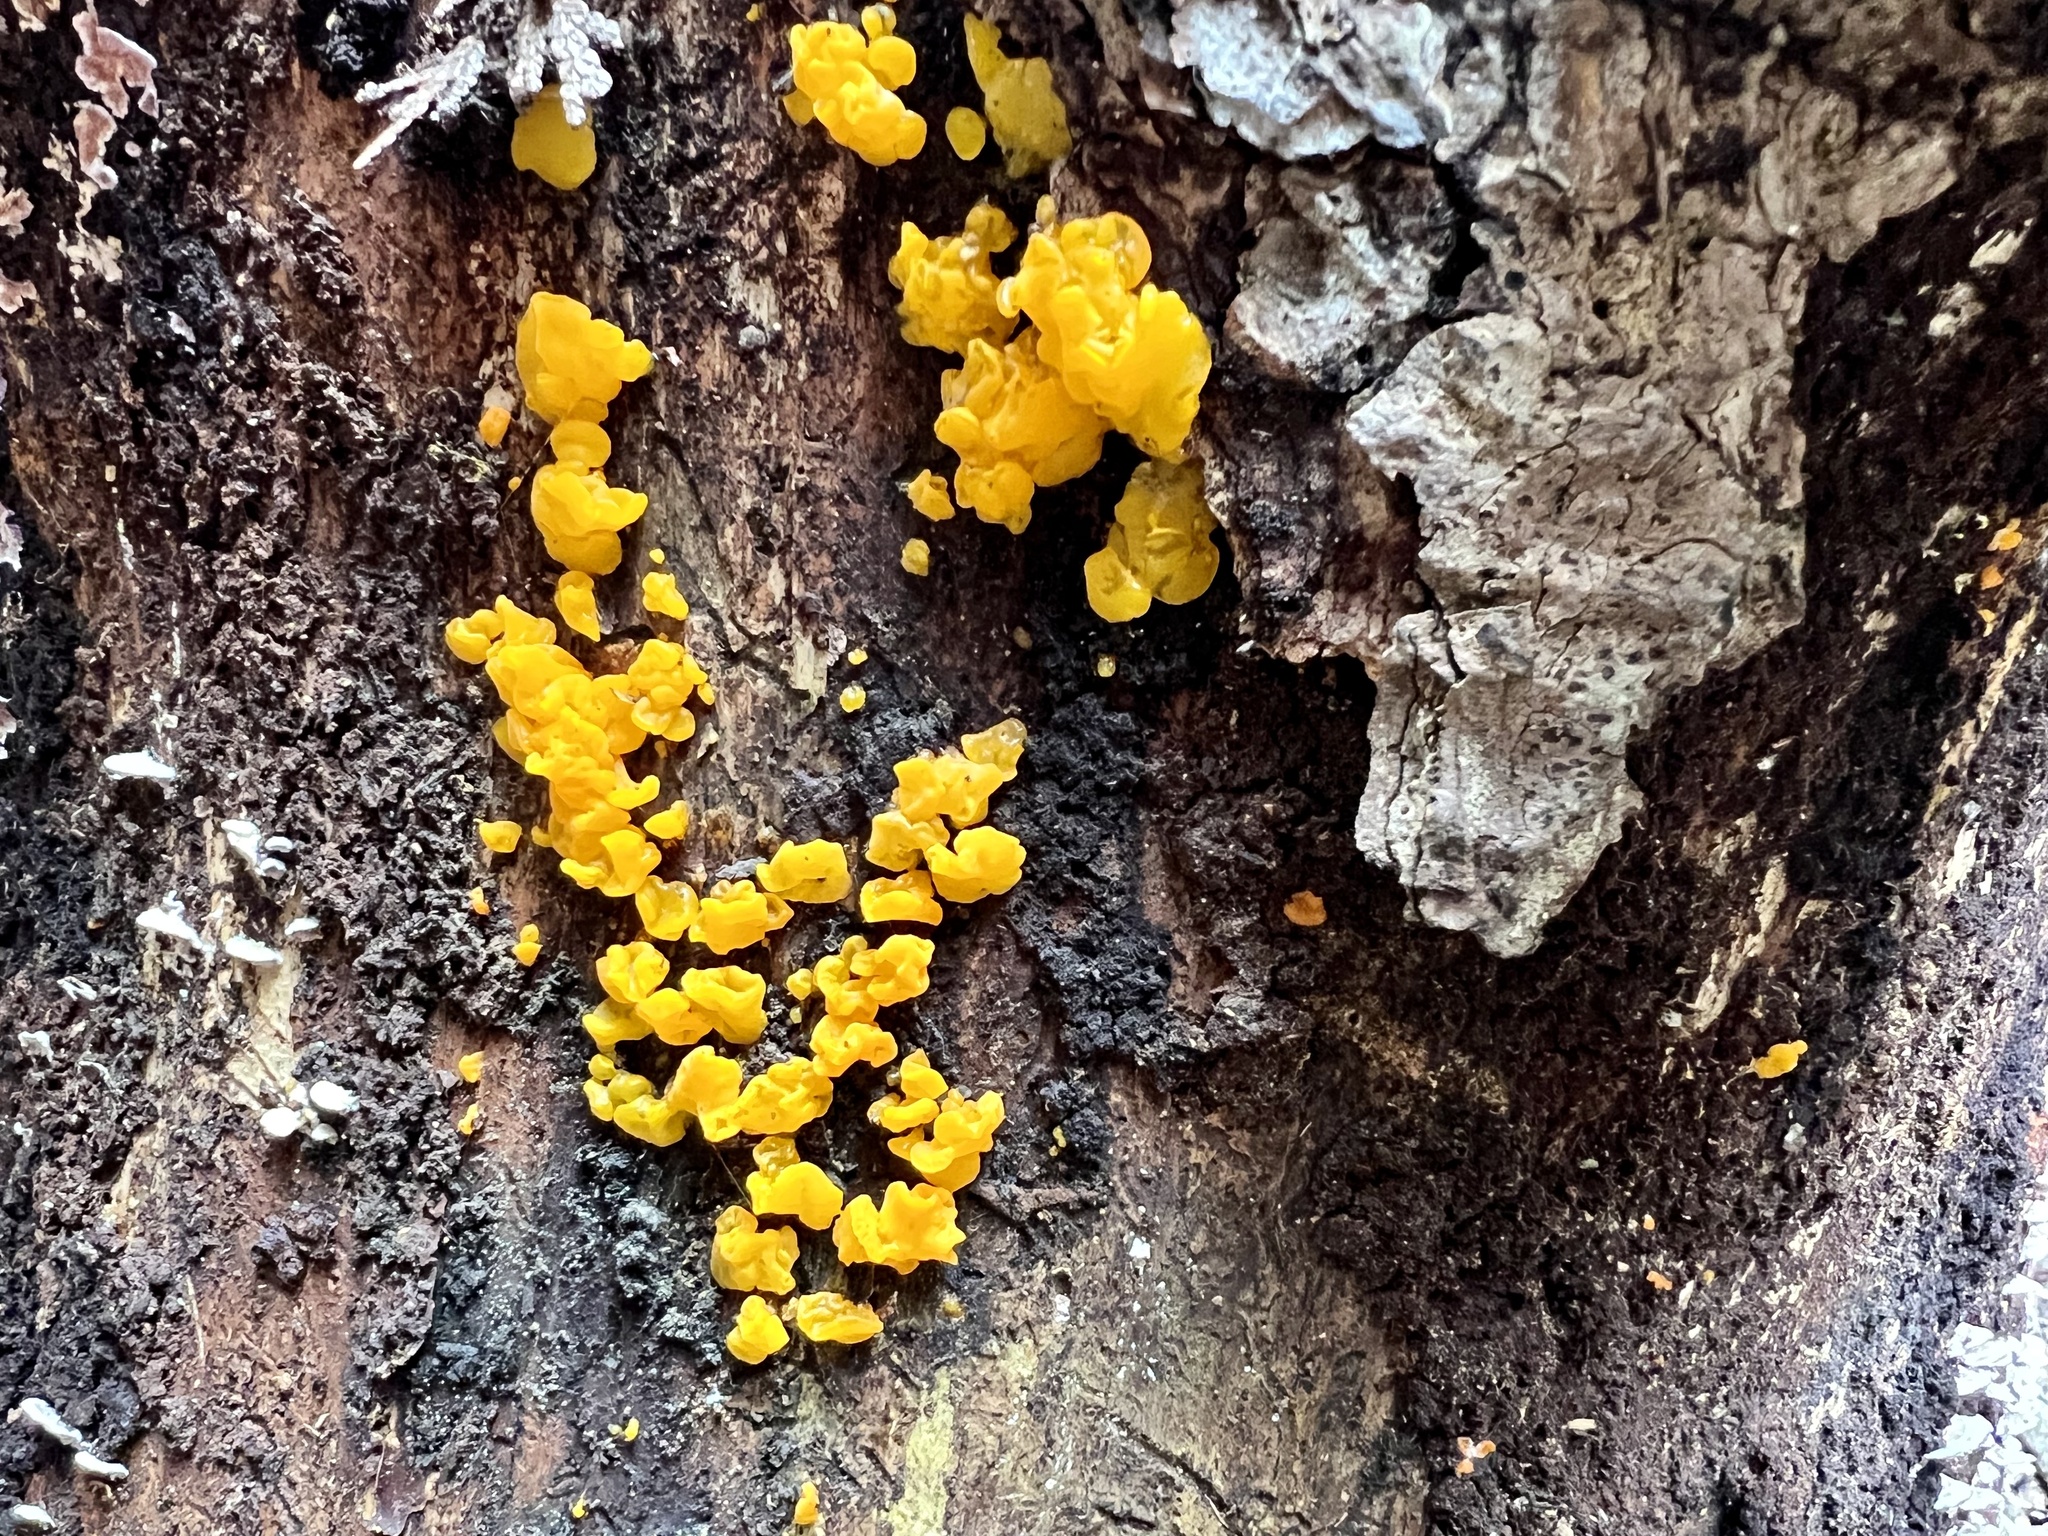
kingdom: Fungi
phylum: Basidiomycota
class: Dacrymycetes
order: Dacrymycetales
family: Dacrymycetaceae
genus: Dacrymyces
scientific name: Dacrymyces chrysospermus
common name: Orange jelly spot
